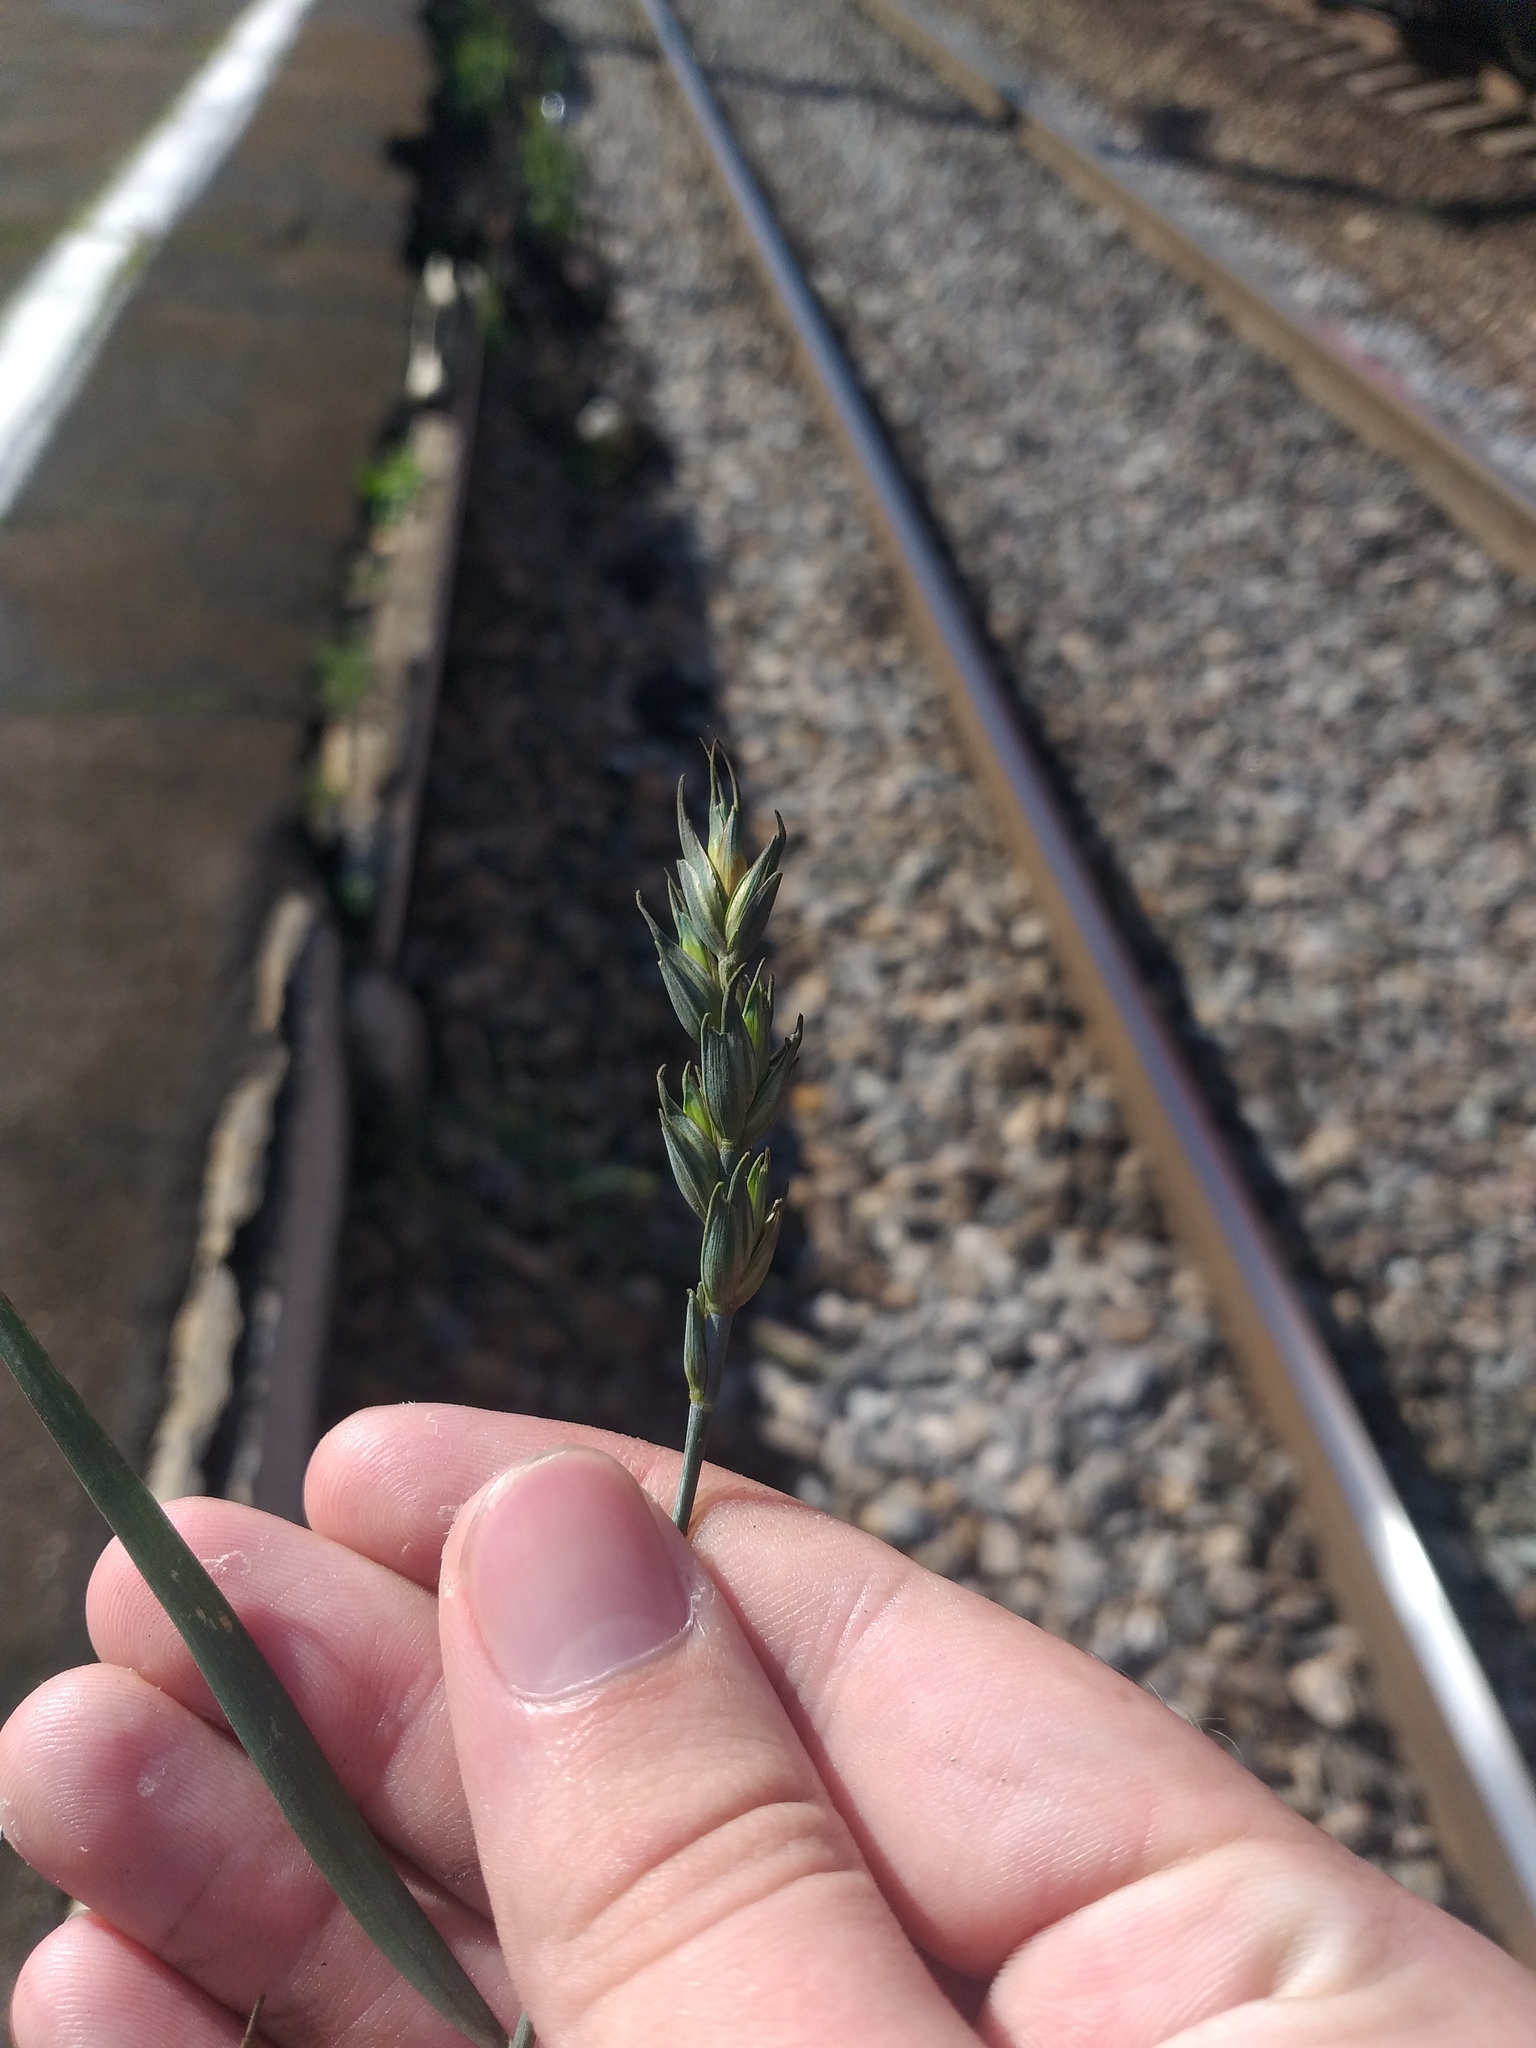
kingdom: Plantae
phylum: Tracheophyta
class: Liliopsida
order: Poales
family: Poaceae
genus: Triticum
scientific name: Triticum aestivum
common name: Common wheat
